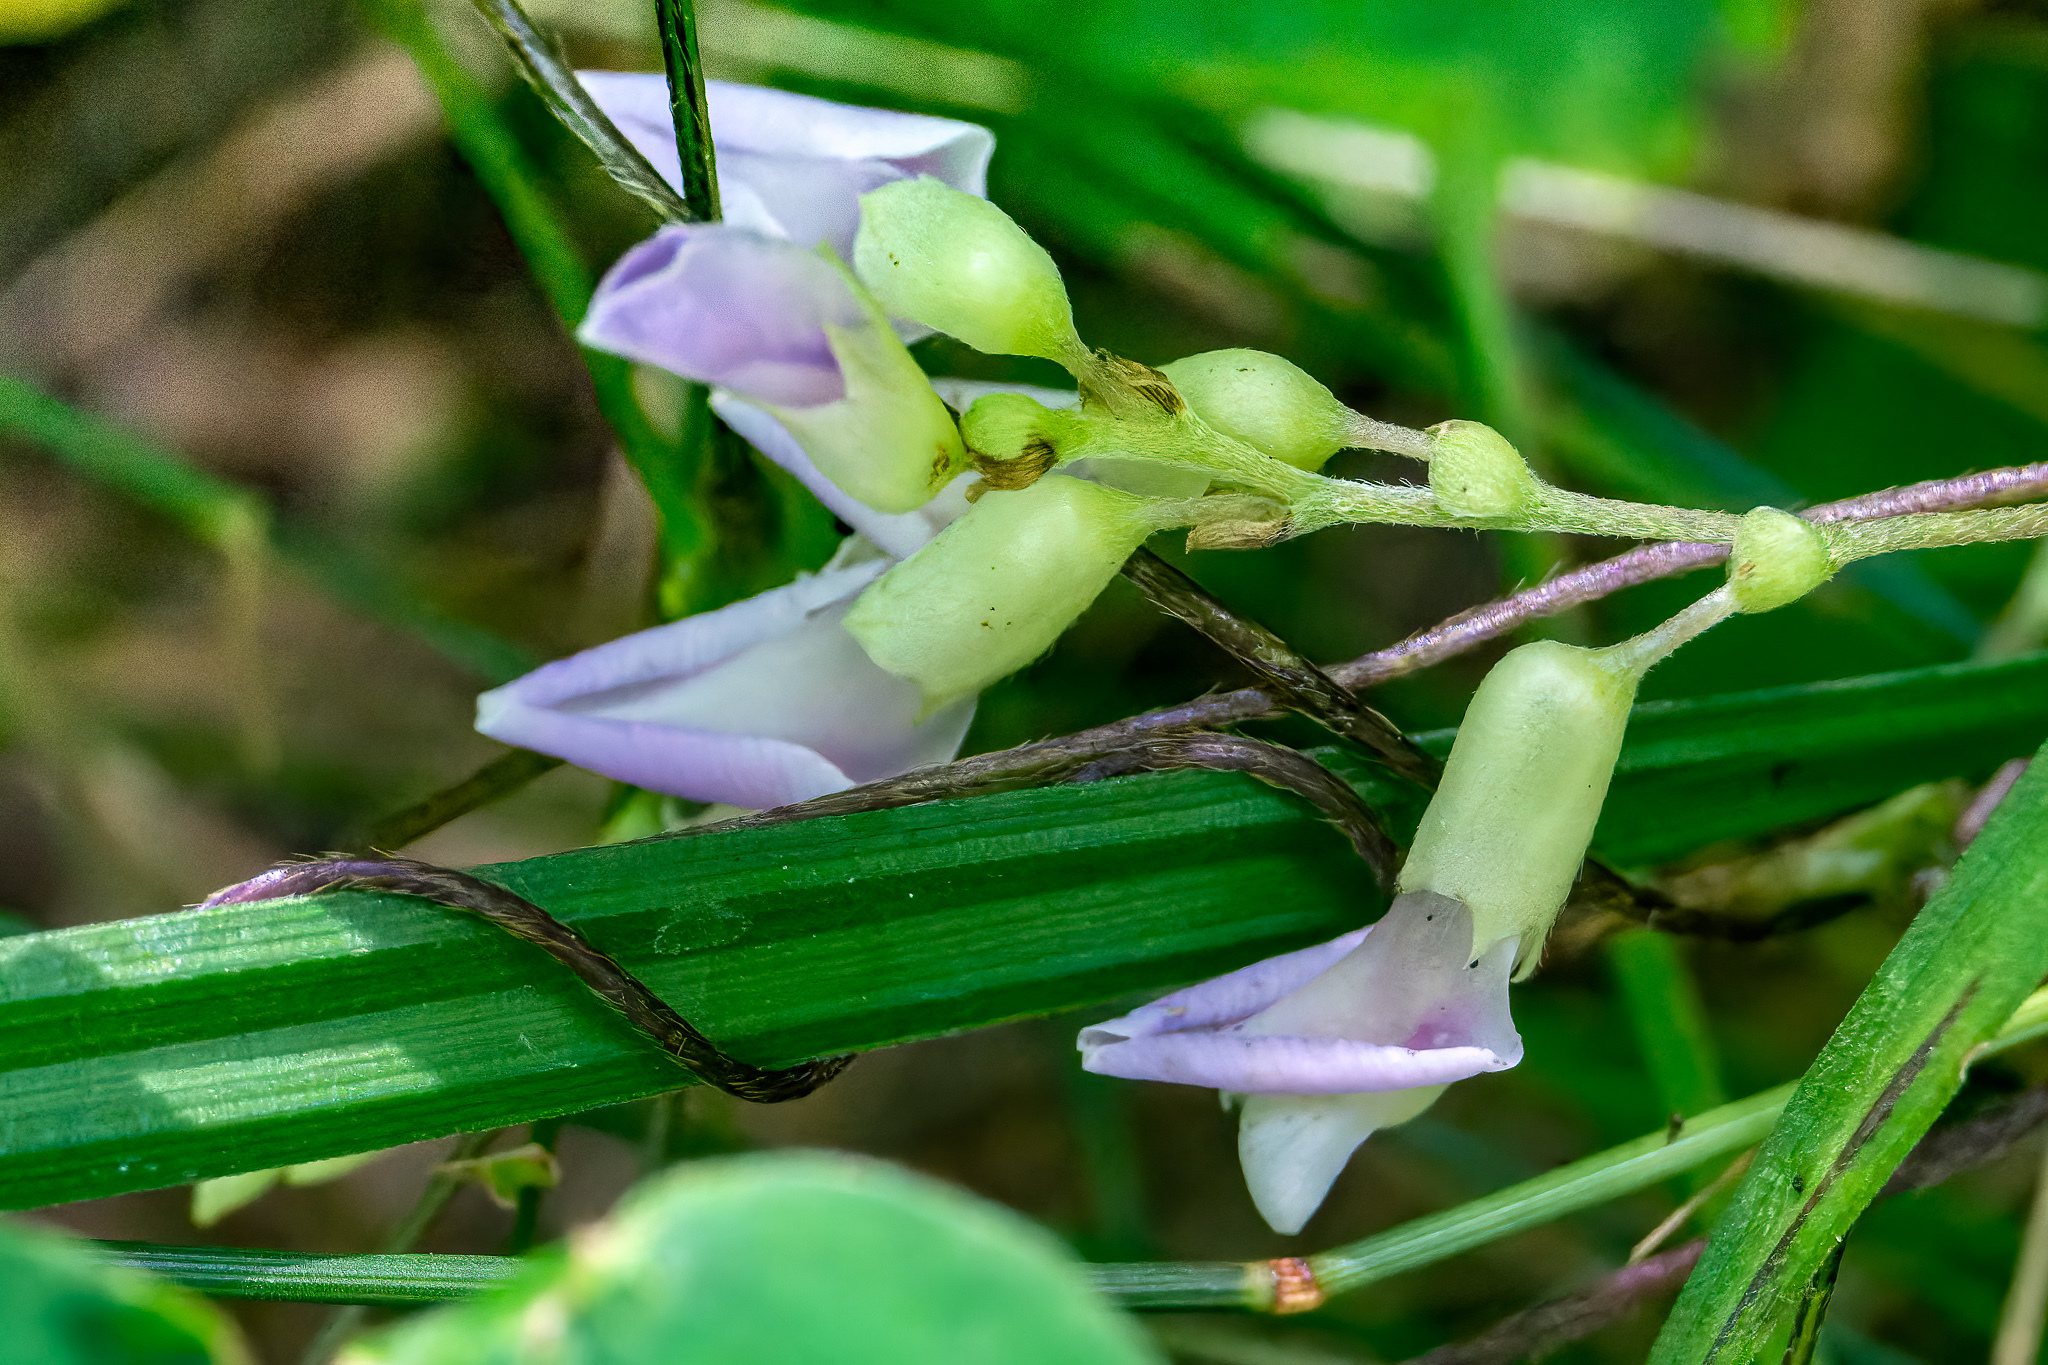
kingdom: Plantae
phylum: Tracheophyta
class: Magnoliopsida
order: Fabales
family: Fabaceae
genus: Amphicarpaea
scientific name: Amphicarpaea bracteata
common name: American hog peanut
